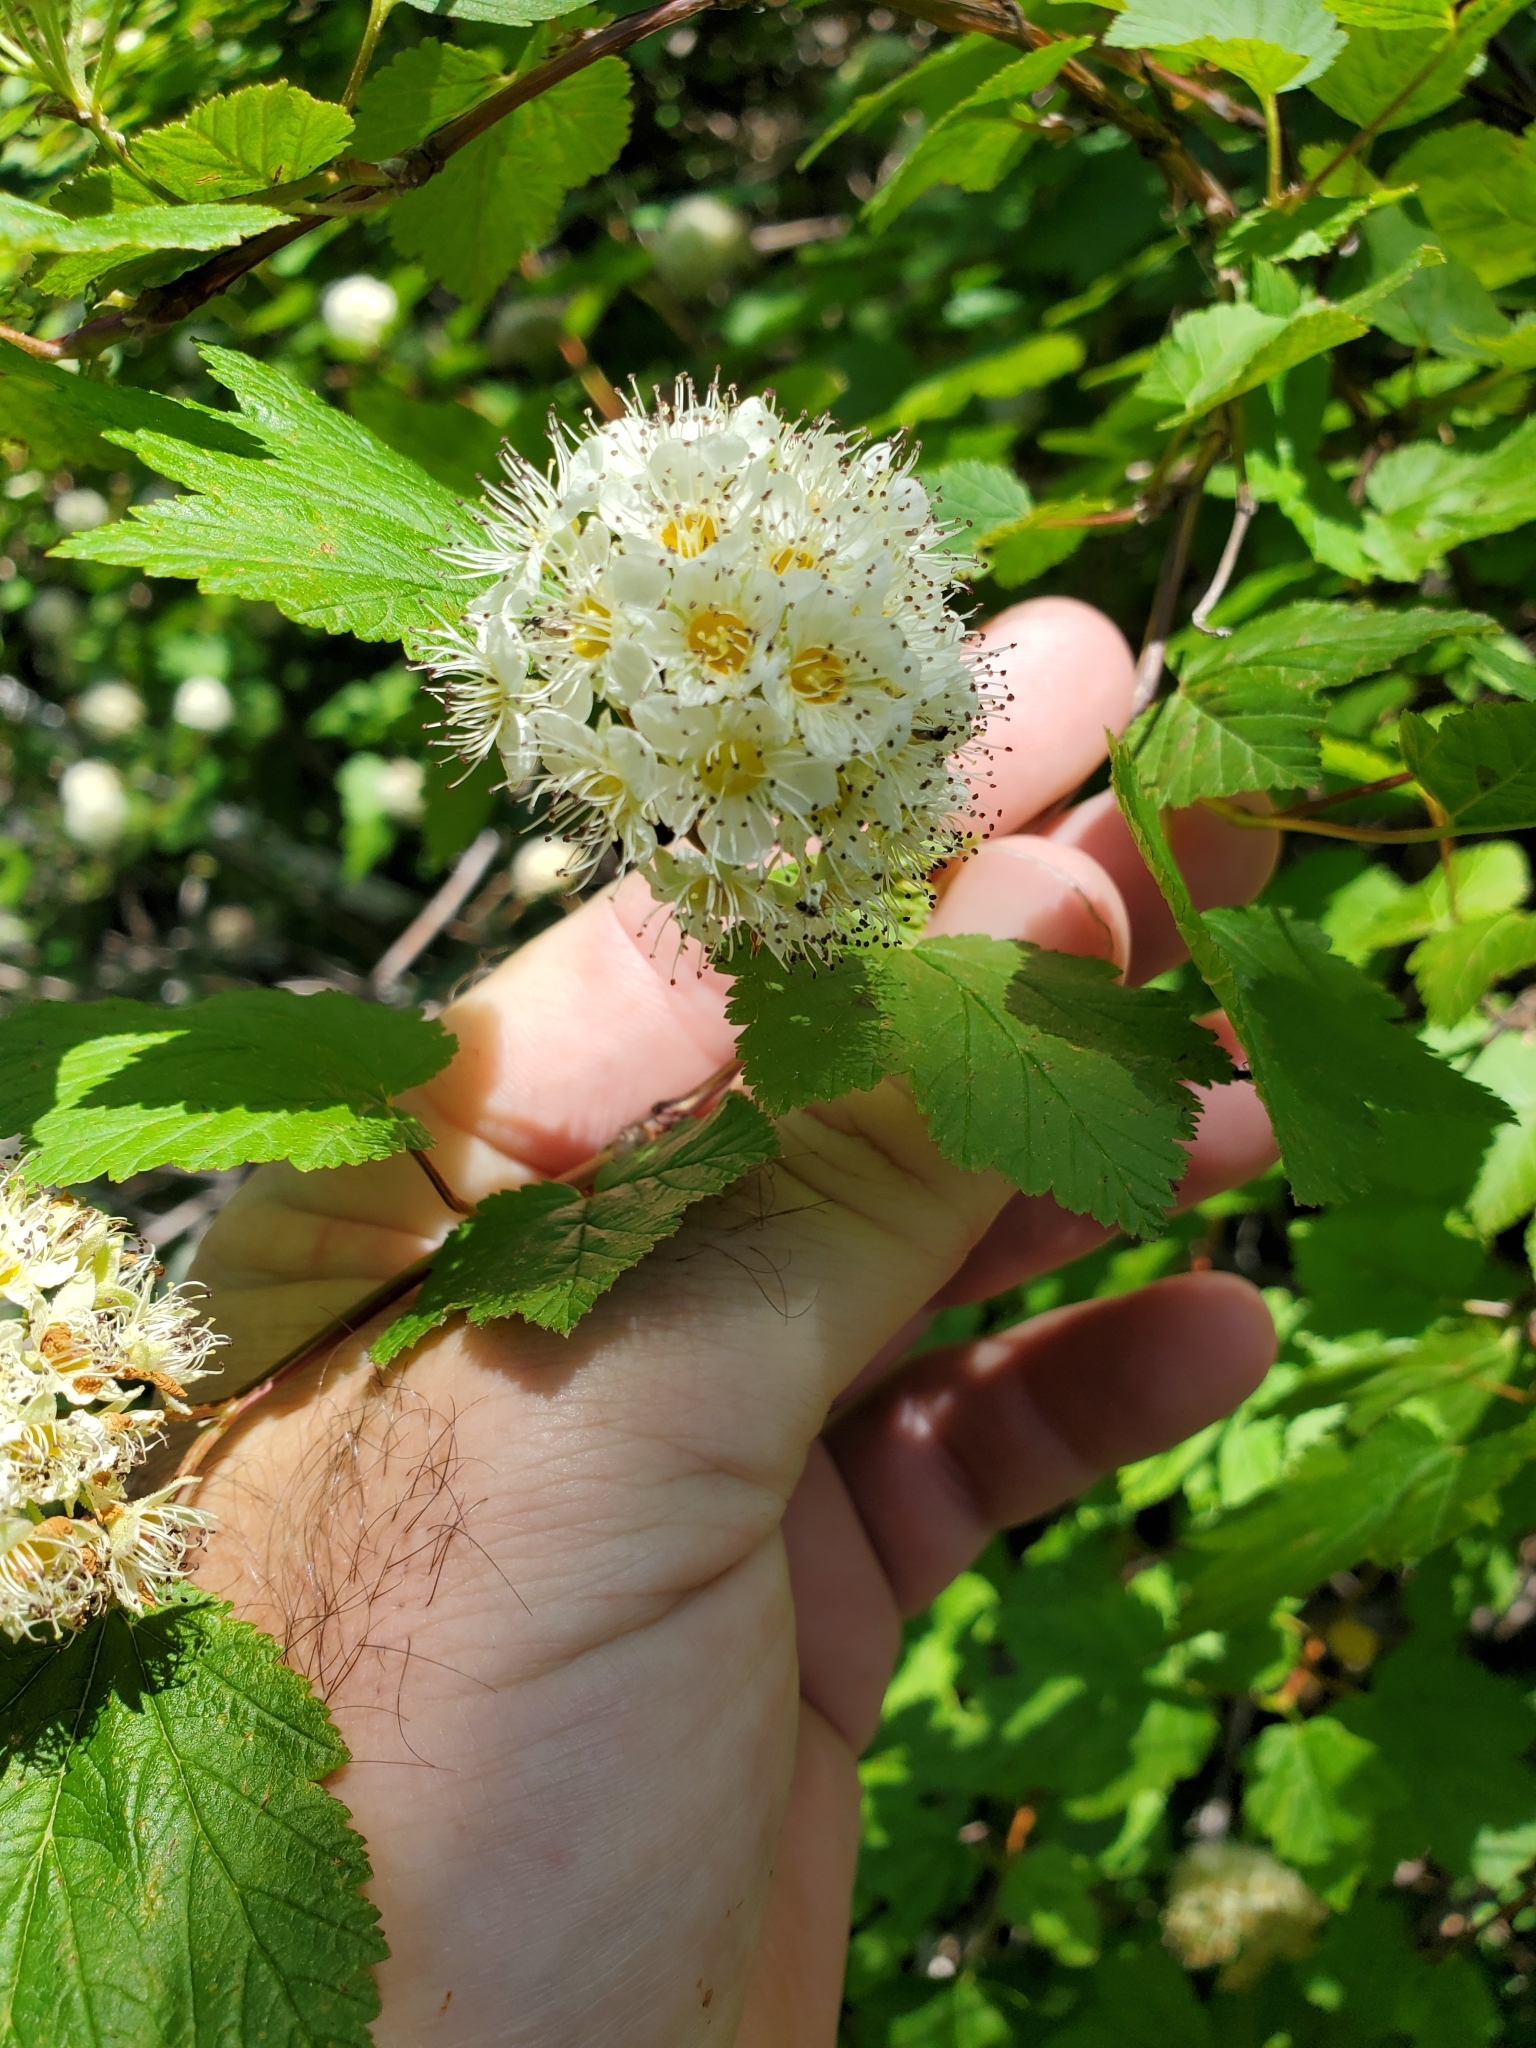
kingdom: Plantae
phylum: Tracheophyta
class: Magnoliopsida
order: Rosales
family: Rosaceae
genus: Physocarpus
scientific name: Physocarpus capitatus
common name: Pacific ninebark
